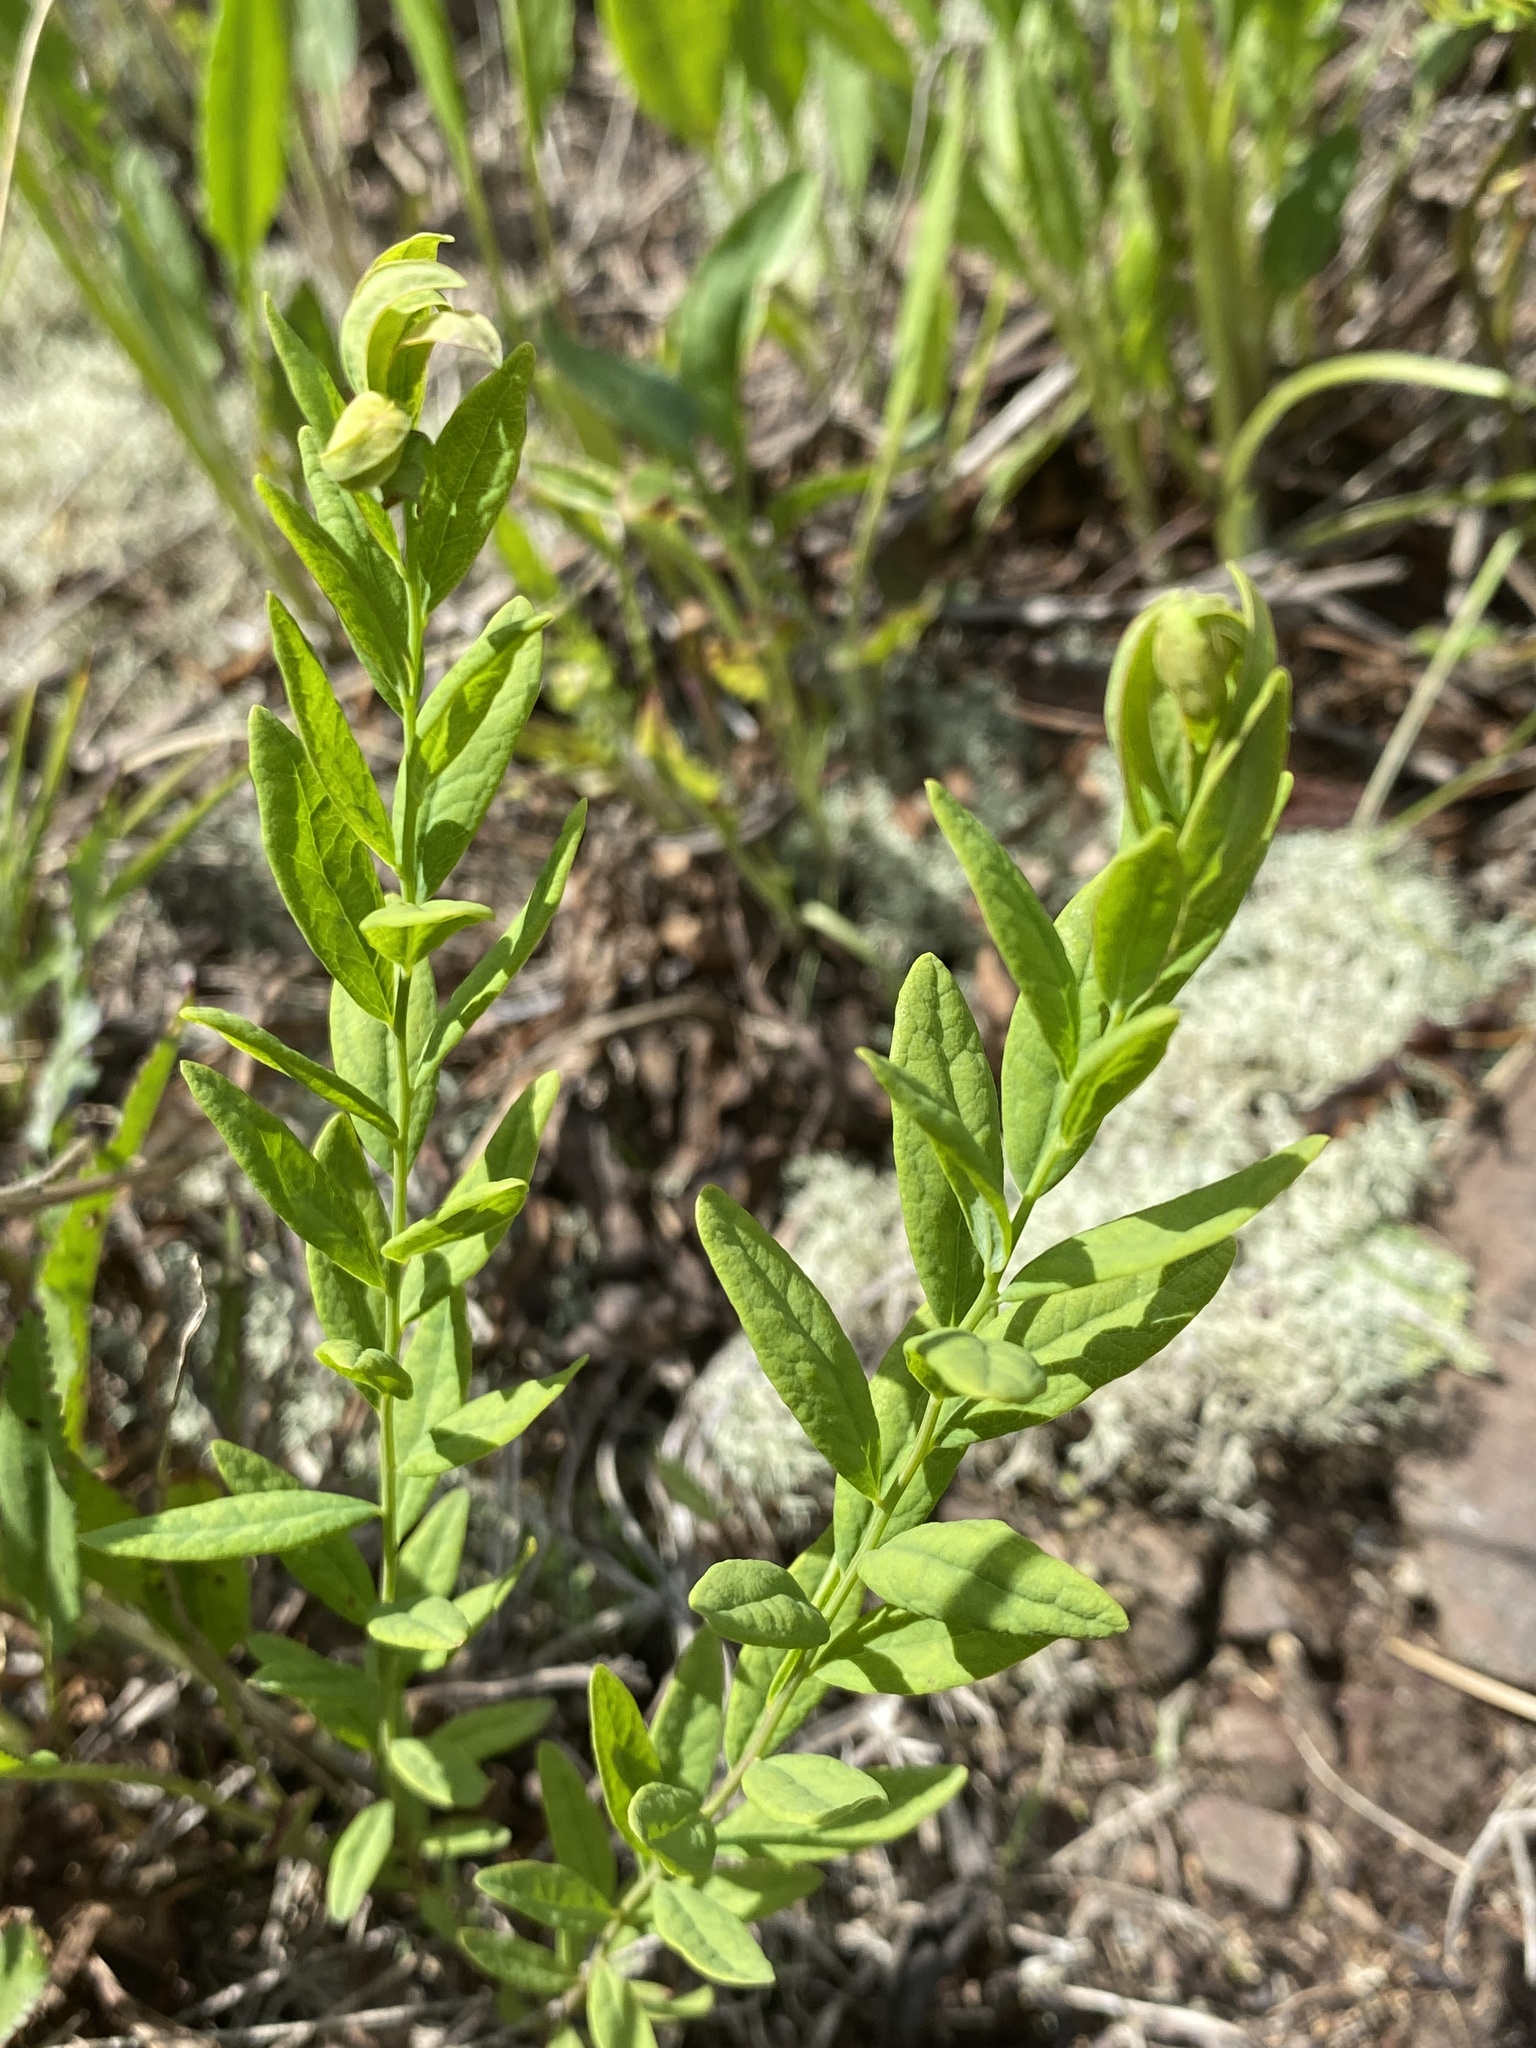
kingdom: Plantae
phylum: Tracheophyta
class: Magnoliopsida
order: Santalales
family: Comandraceae
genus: Comandra
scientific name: Comandra umbellata
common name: Bastard toadflax
